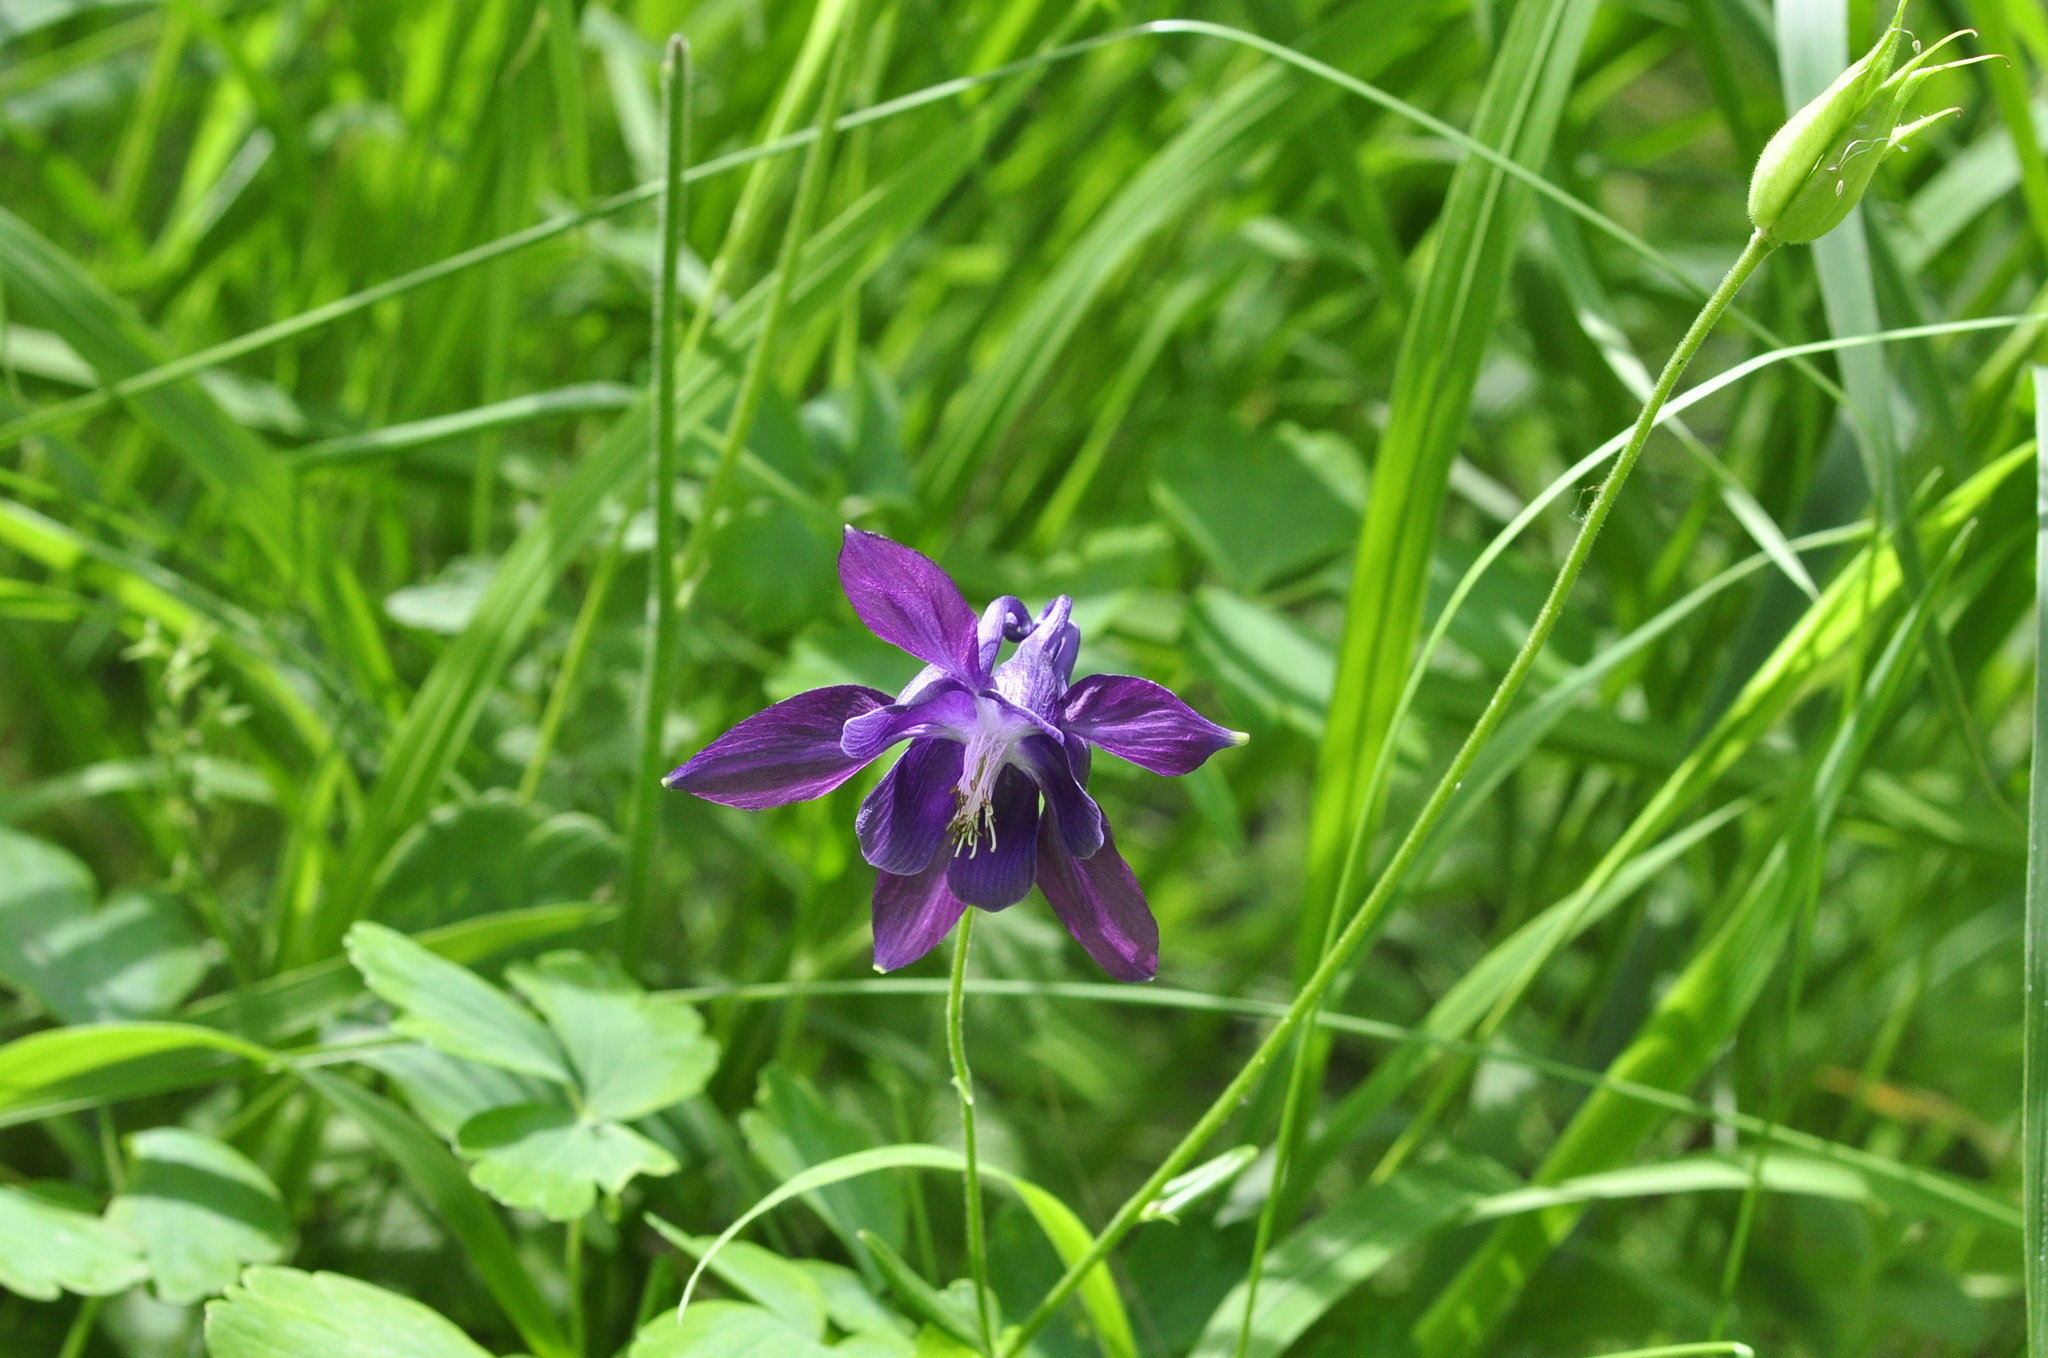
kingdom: Plantae
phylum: Tracheophyta
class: Magnoliopsida
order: Ranunculales
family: Ranunculaceae
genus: Aquilegia
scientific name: Aquilegia vulgaris
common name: Columbine
